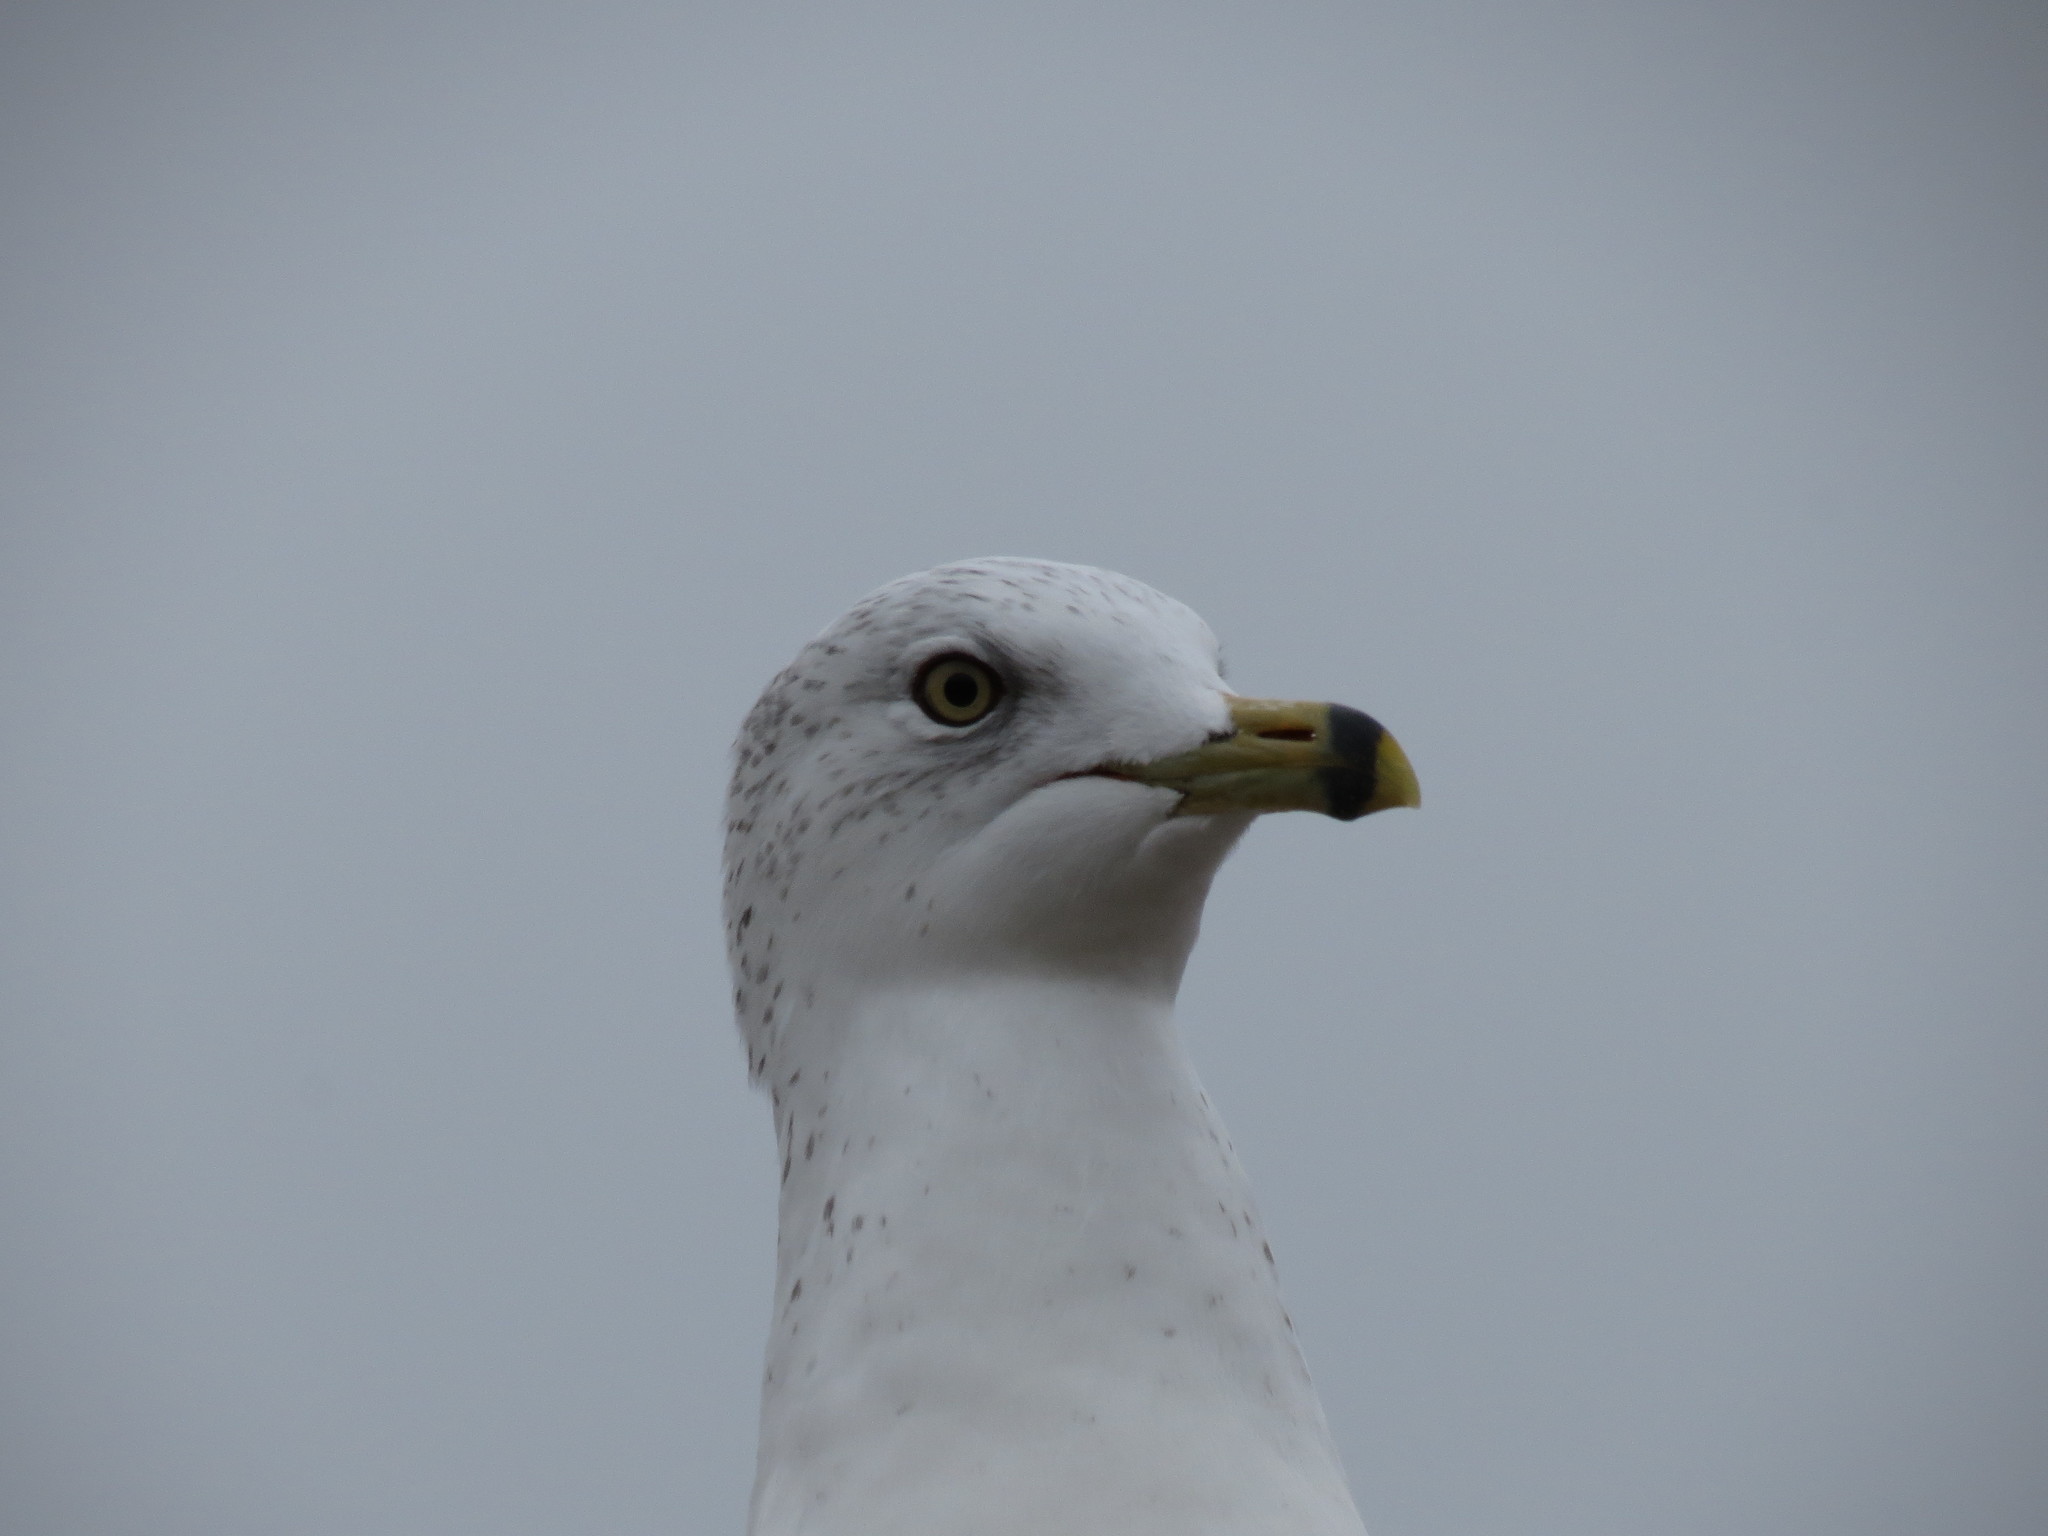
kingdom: Animalia
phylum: Chordata
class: Aves
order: Charadriiformes
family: Laridae
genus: Larus
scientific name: Larus delawarensis
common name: Ring-billed gull
